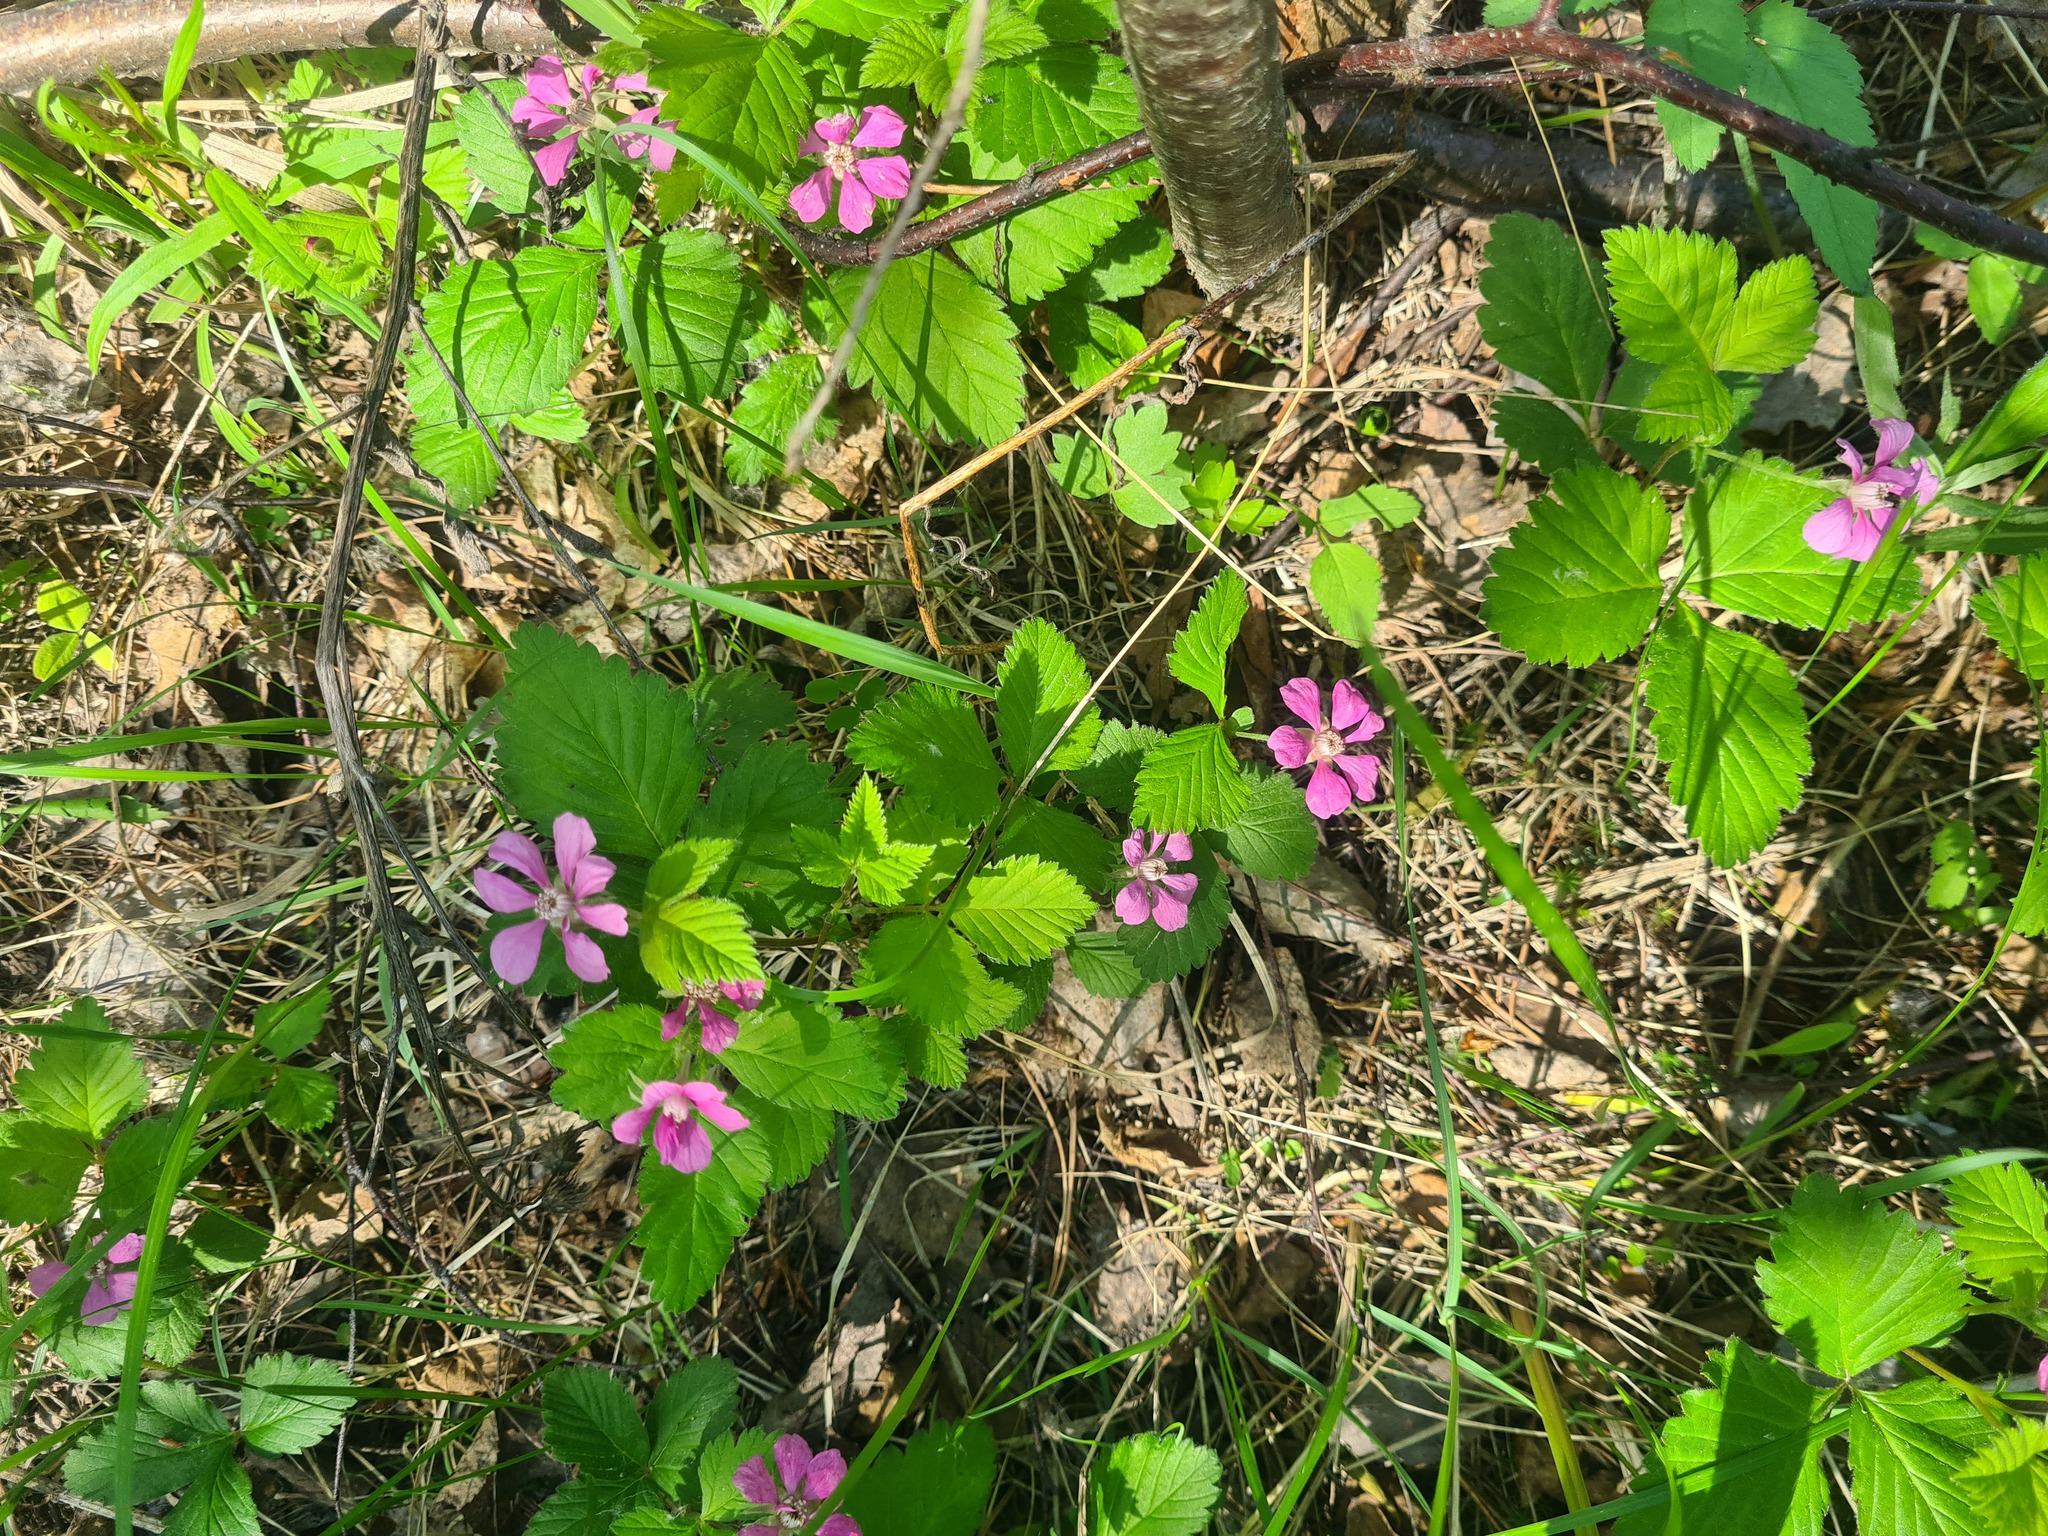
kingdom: Plantae
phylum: Tracheophyta
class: Magnoliopsida
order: Rosales
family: Rosaceae
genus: Rubus
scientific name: Rubus arcticus
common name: Arctic bramble
